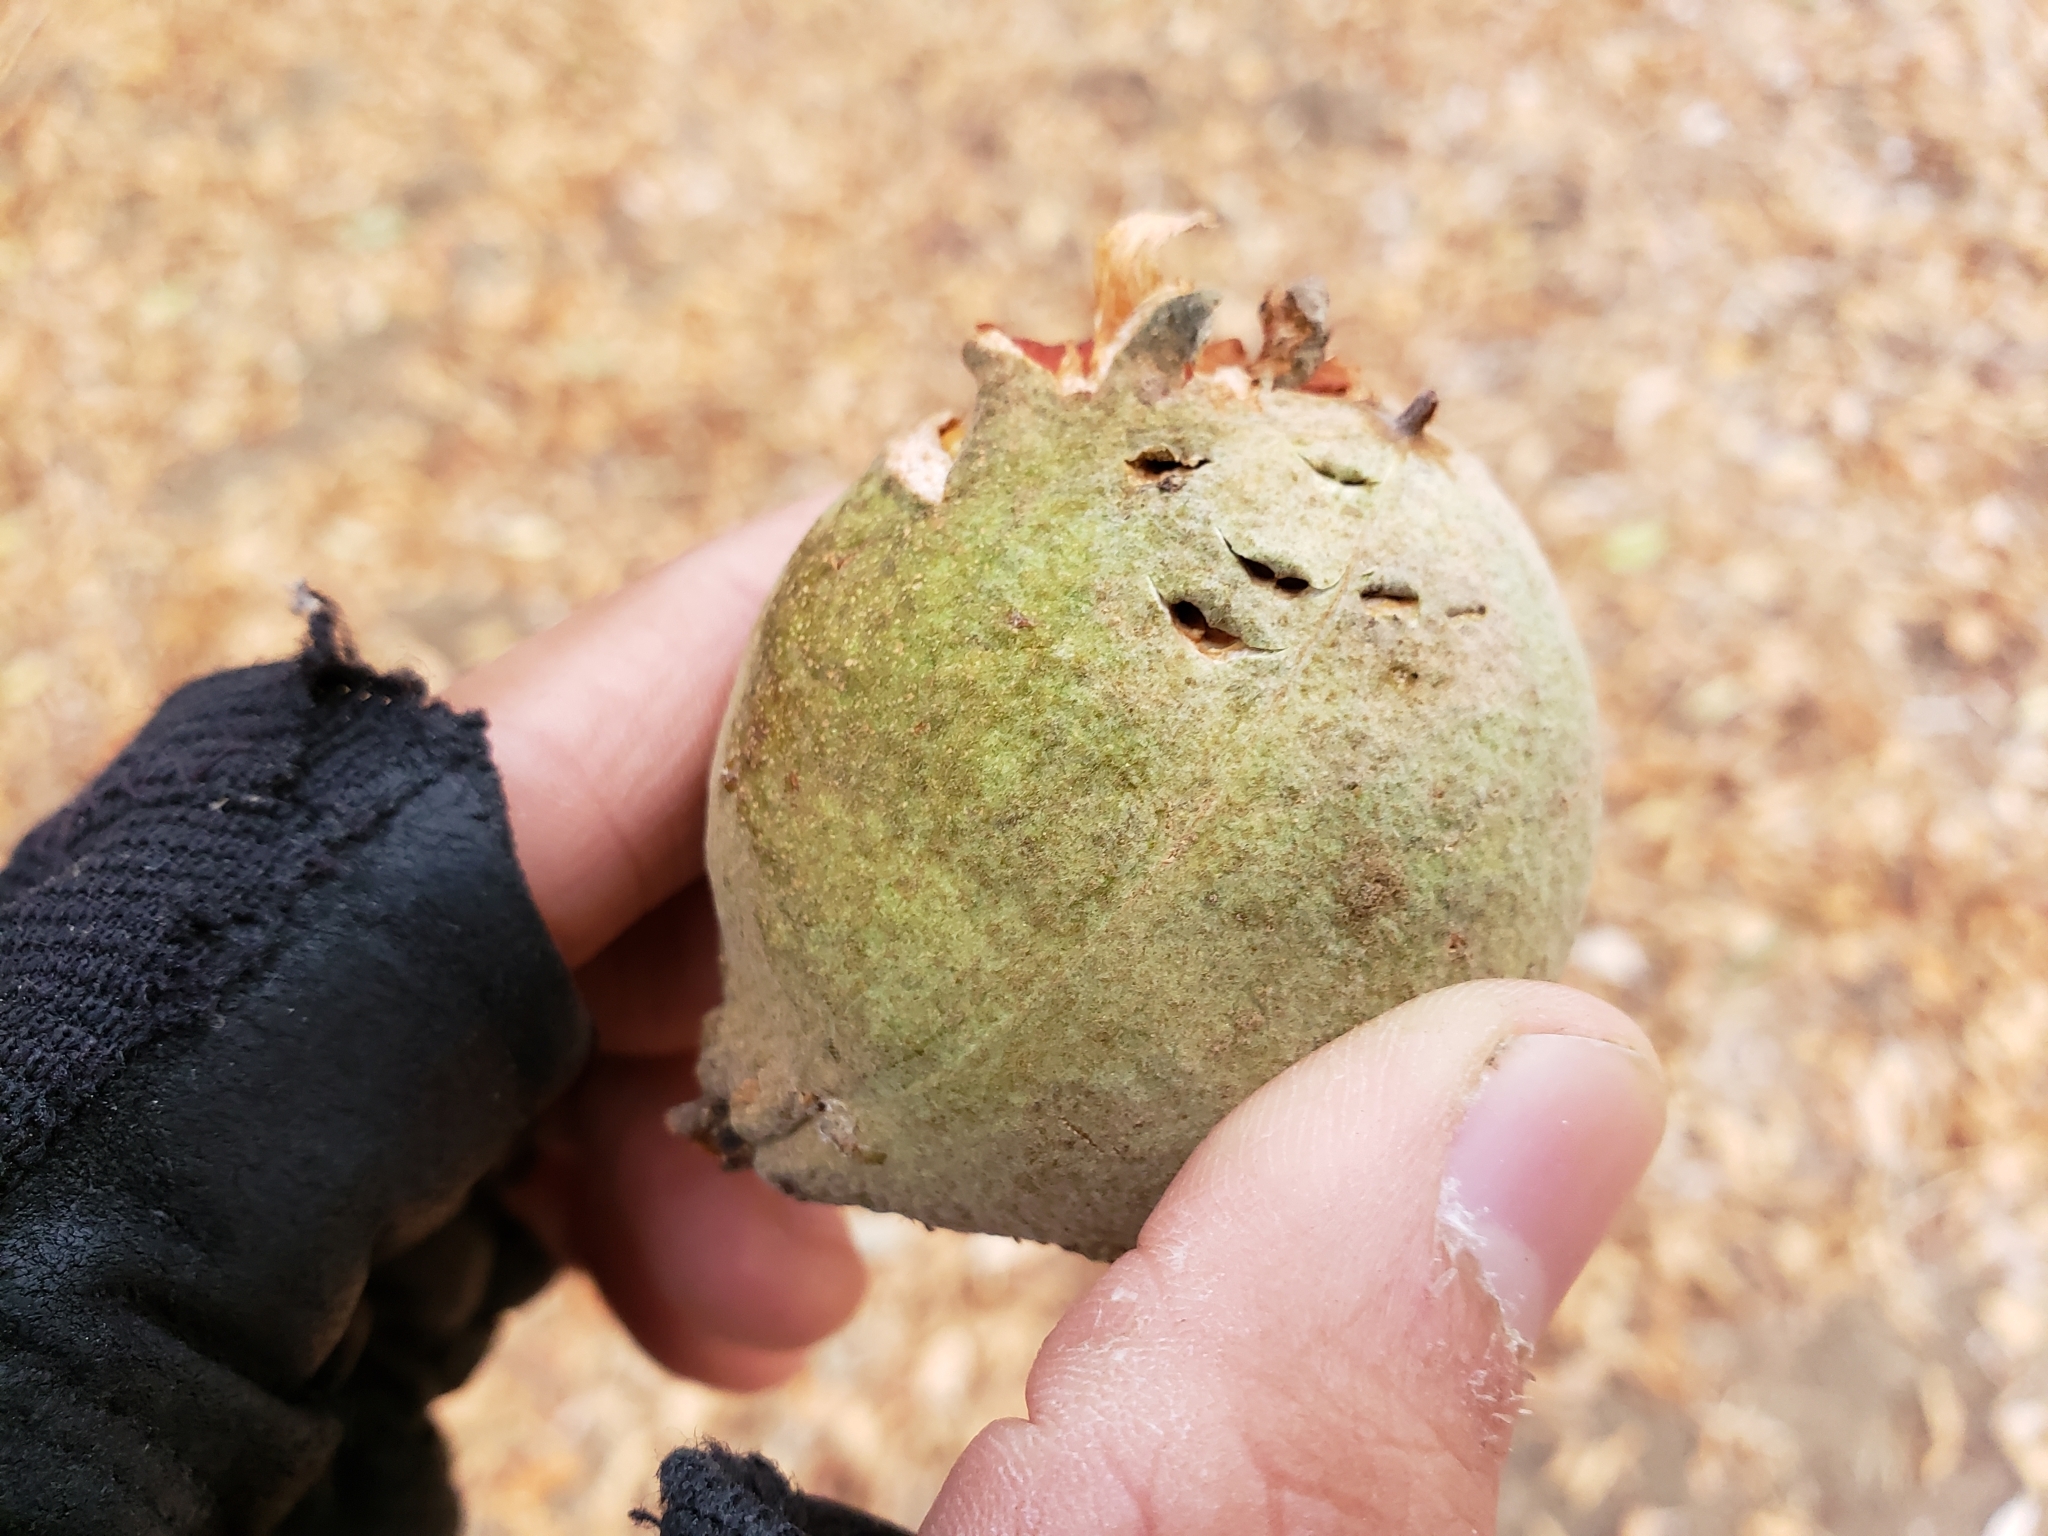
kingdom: Plantae
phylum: Tracheophyta
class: Magnoliopsida
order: Sapindales
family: Sapindaceae
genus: Aesculus
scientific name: Aesculus californica
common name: California buckeye
